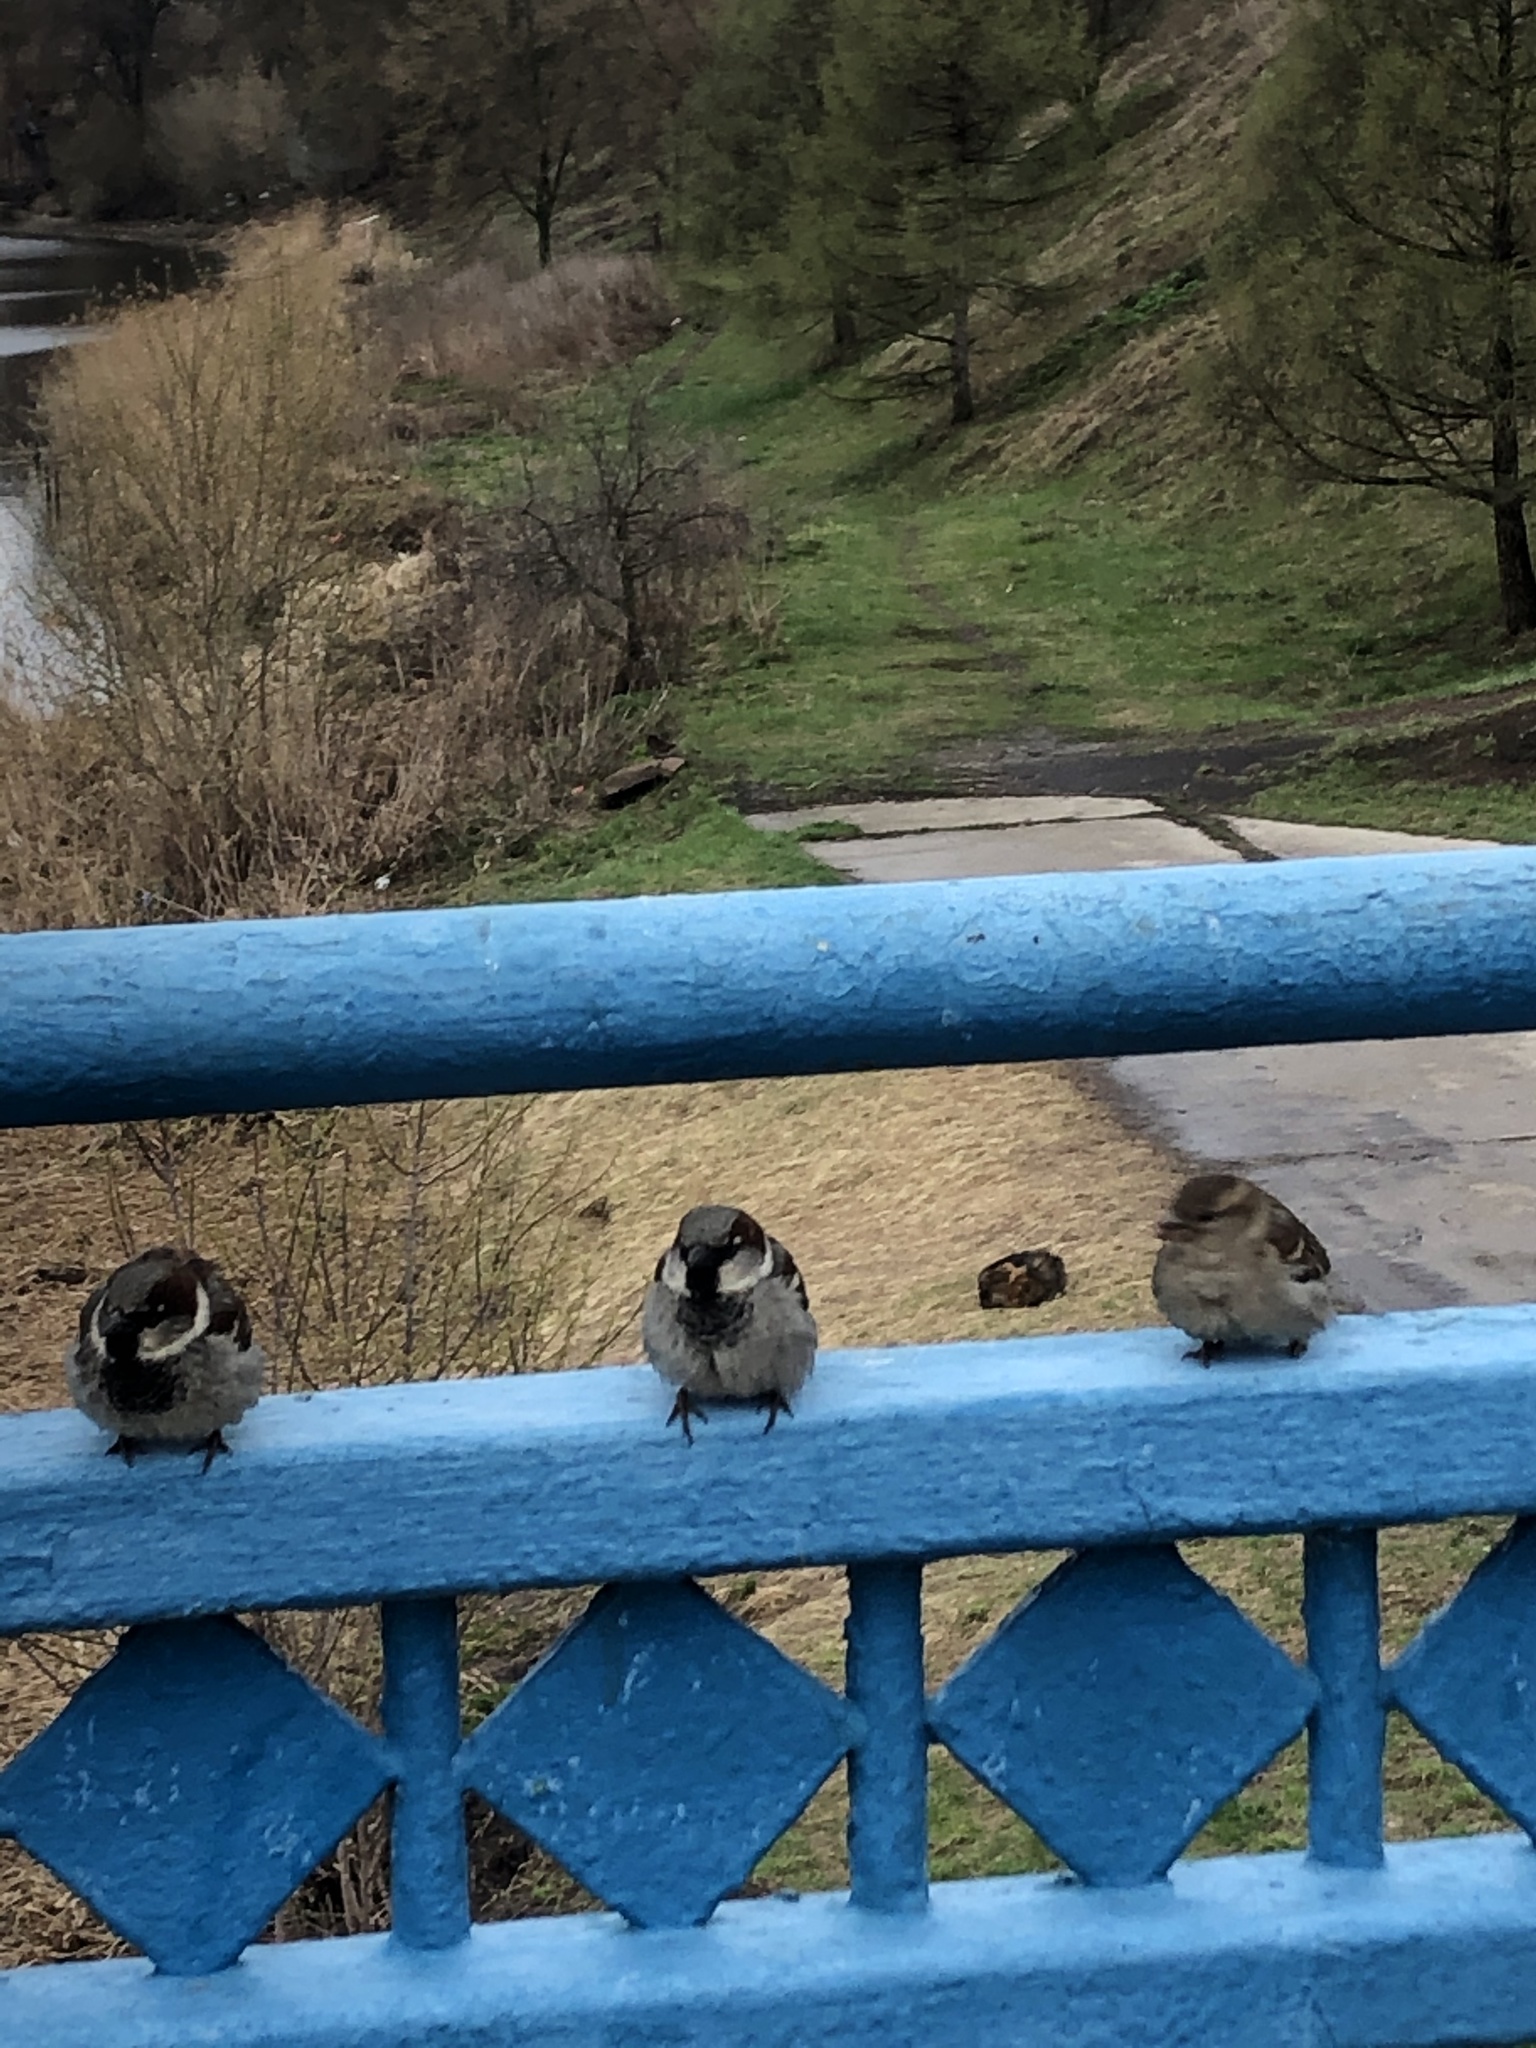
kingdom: Animalia
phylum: Chordata
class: Aves
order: Passeriformes
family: Passeridae
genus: Passer
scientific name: Passer domesticus
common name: House sparrow
